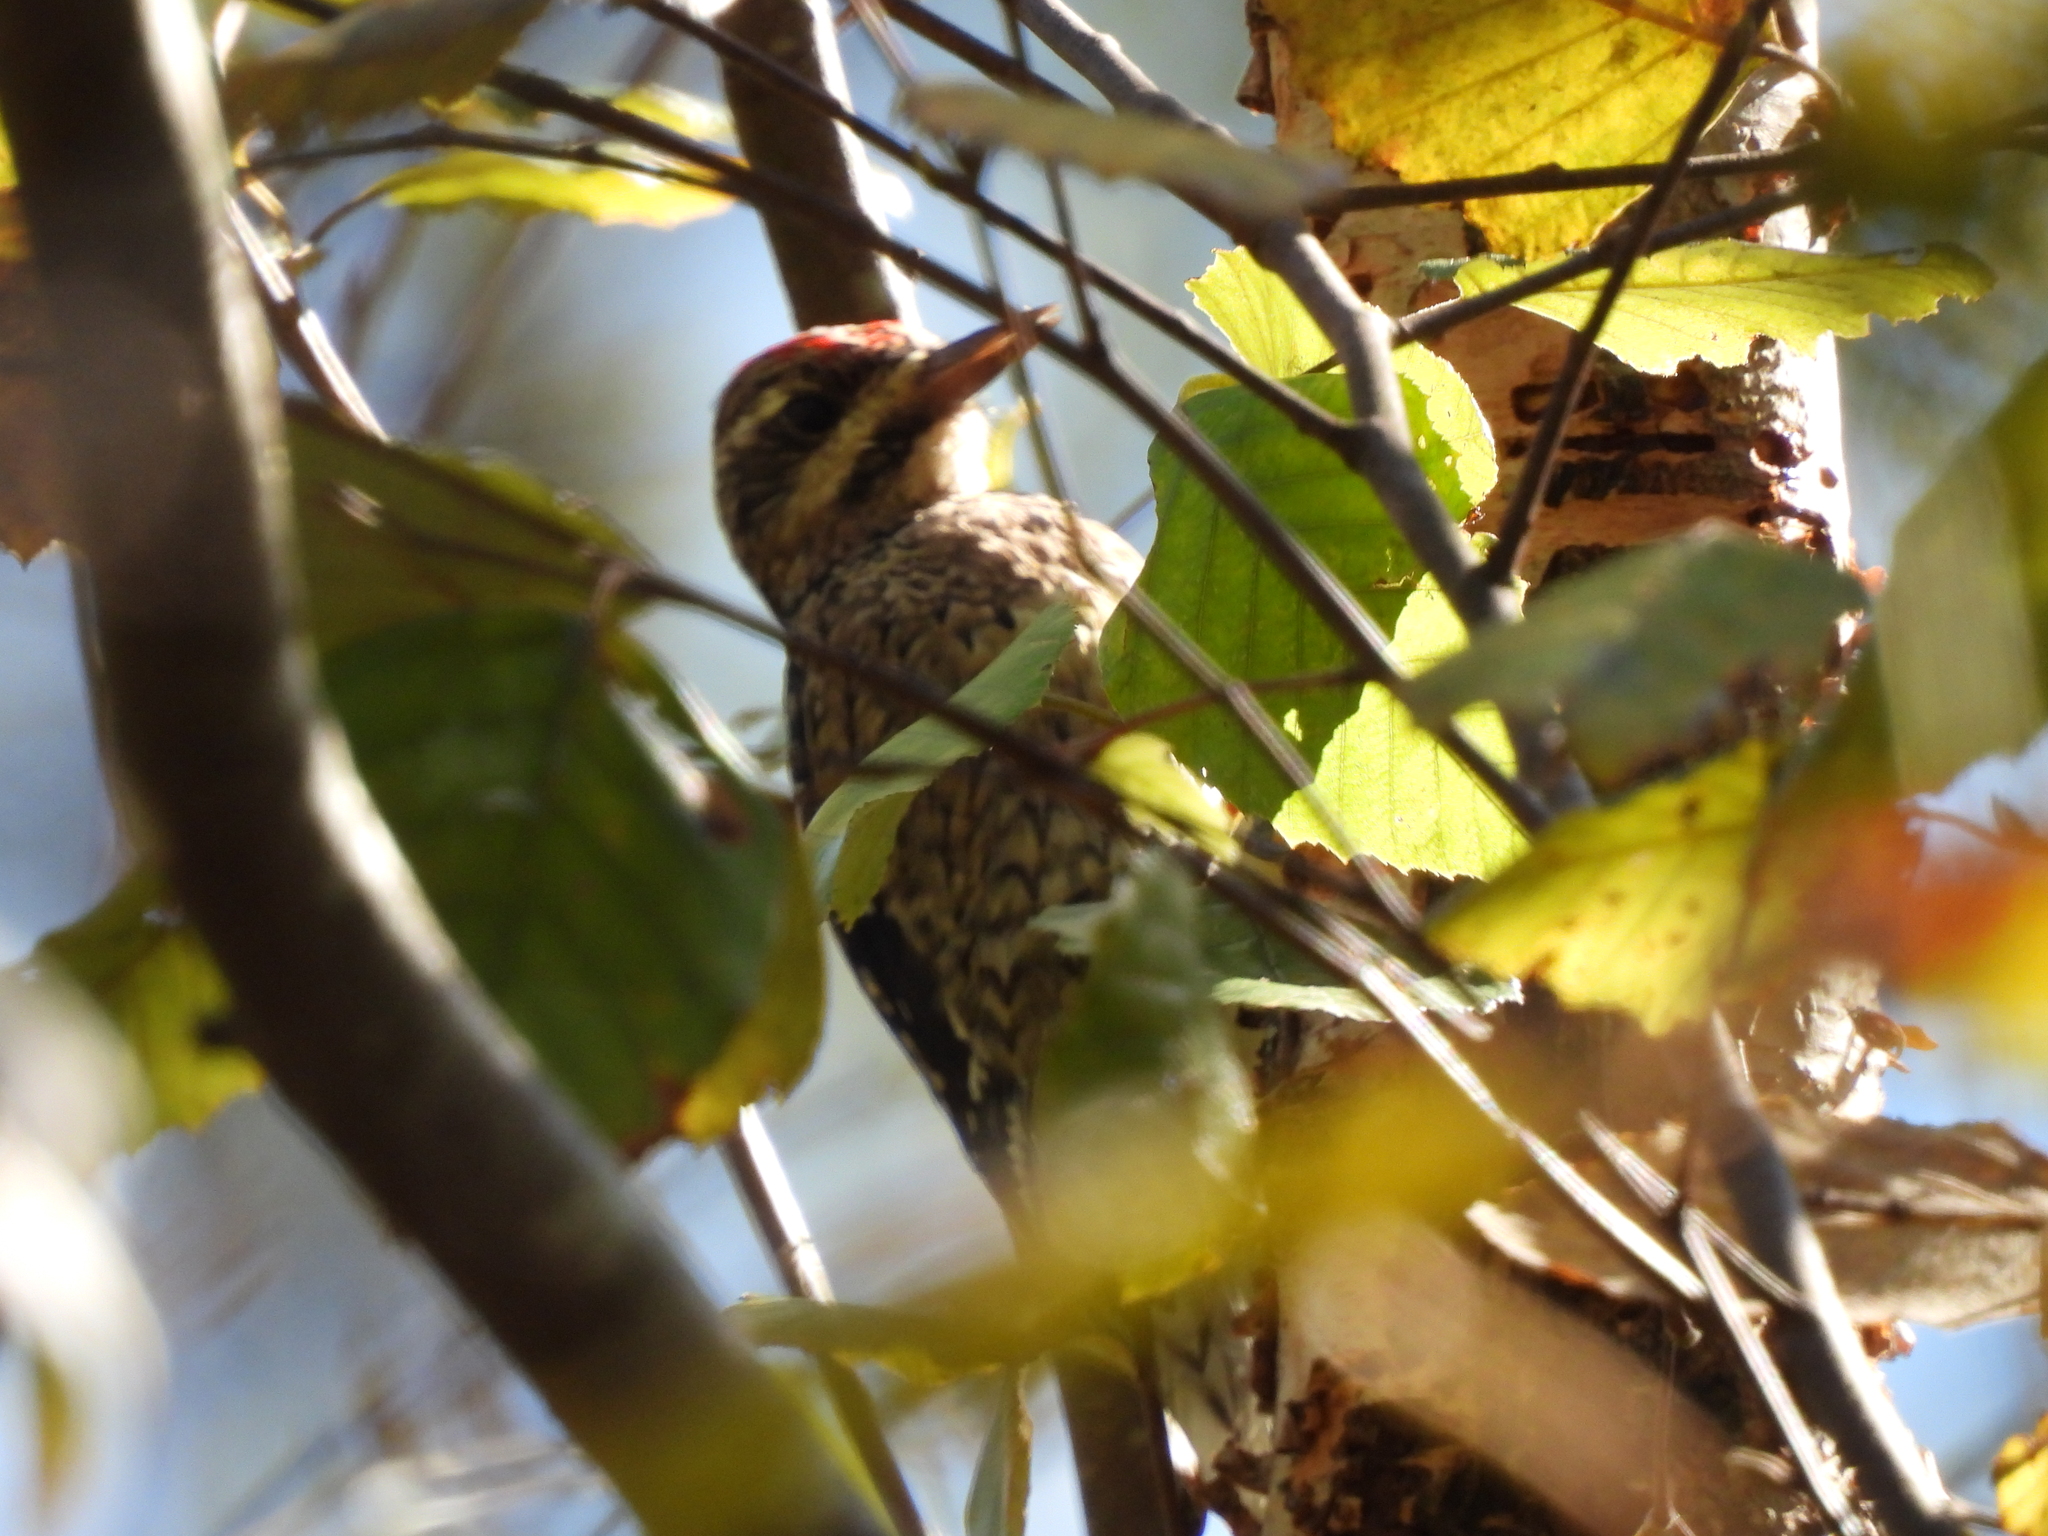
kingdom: Animalia
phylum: Chordata
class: Aves
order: Piciformes
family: Picidae
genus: Sphyrapicus
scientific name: Sphyrapicus varius
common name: Yellow-bellied sapsucker
